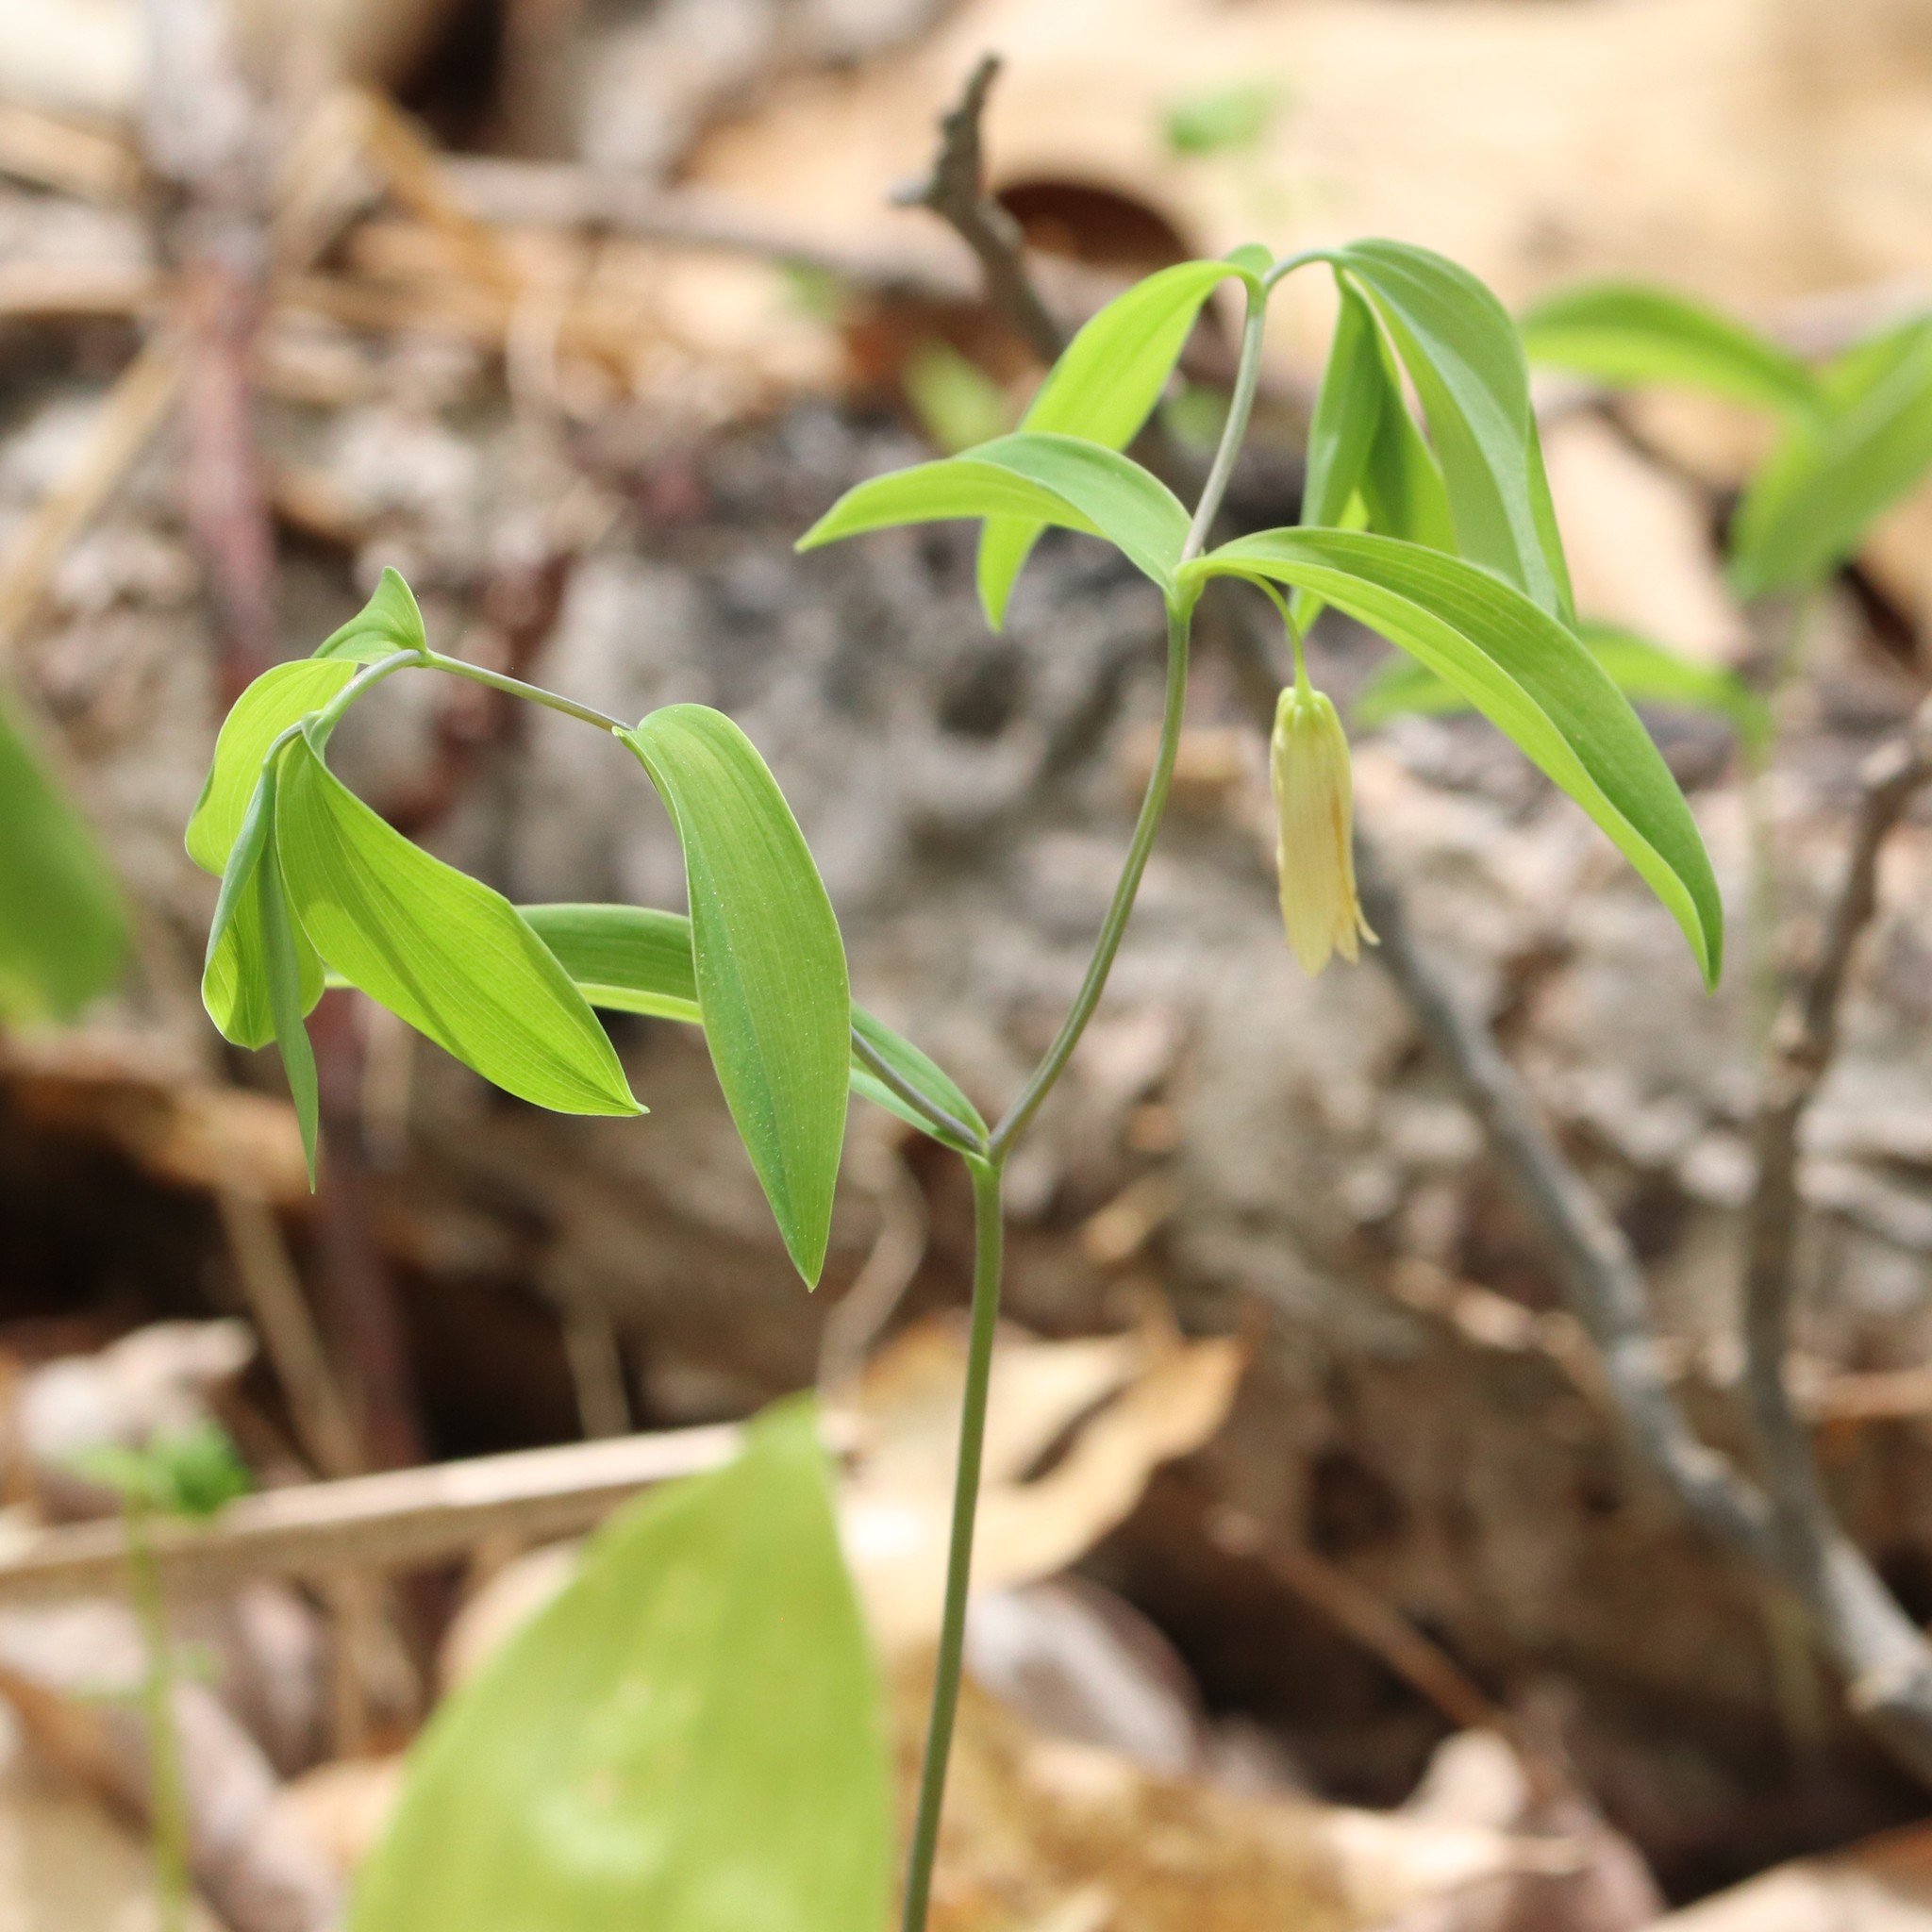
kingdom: Plantae
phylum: Tracheophyta
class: Liliopsida
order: Liliales
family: Colchicaceae
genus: Uvularia
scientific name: Uvularia sessilifolia
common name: Straw-lily
